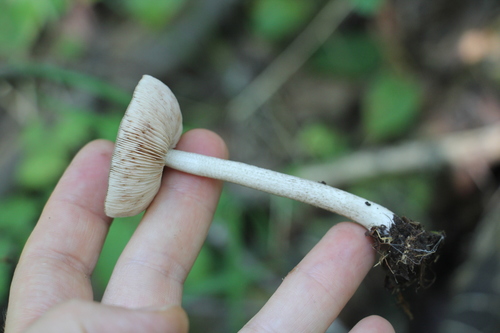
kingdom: Fungi
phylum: Basidiomycota
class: Agaricomycetes
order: Agaricales
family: Pluteaceae
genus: Pluteus
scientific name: Pluteus
